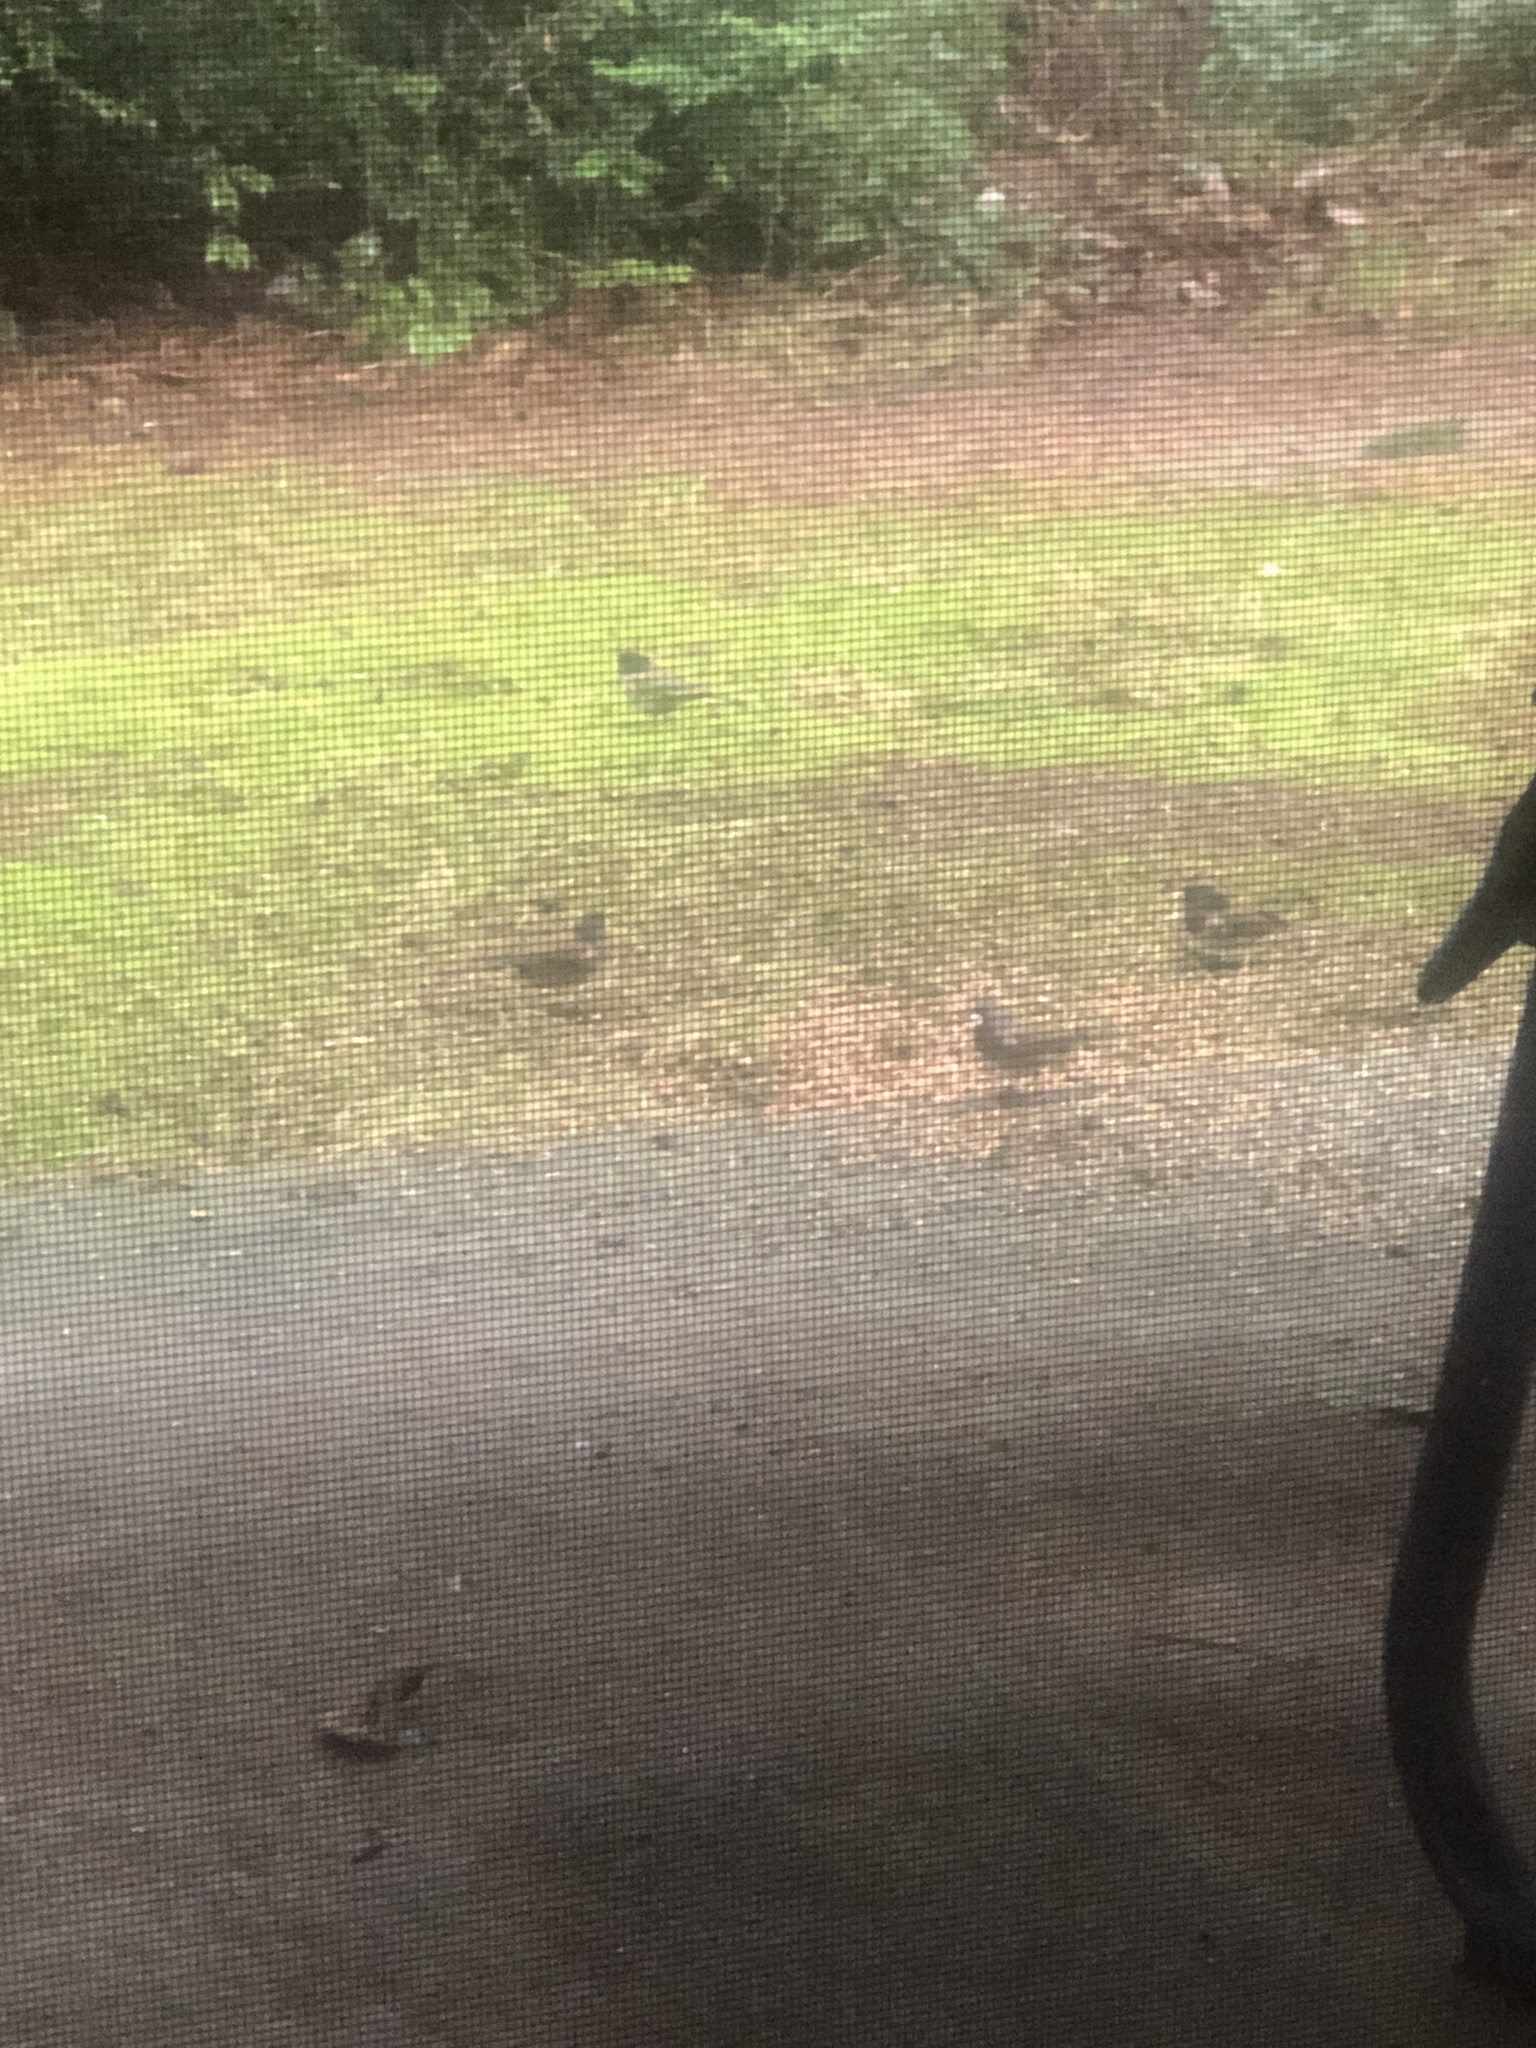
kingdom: Animalia
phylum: Chordata
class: Aves
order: Passeriformes
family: Passerellidae
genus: Junco
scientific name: Junco hyemalis
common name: Dark-eyed junco
